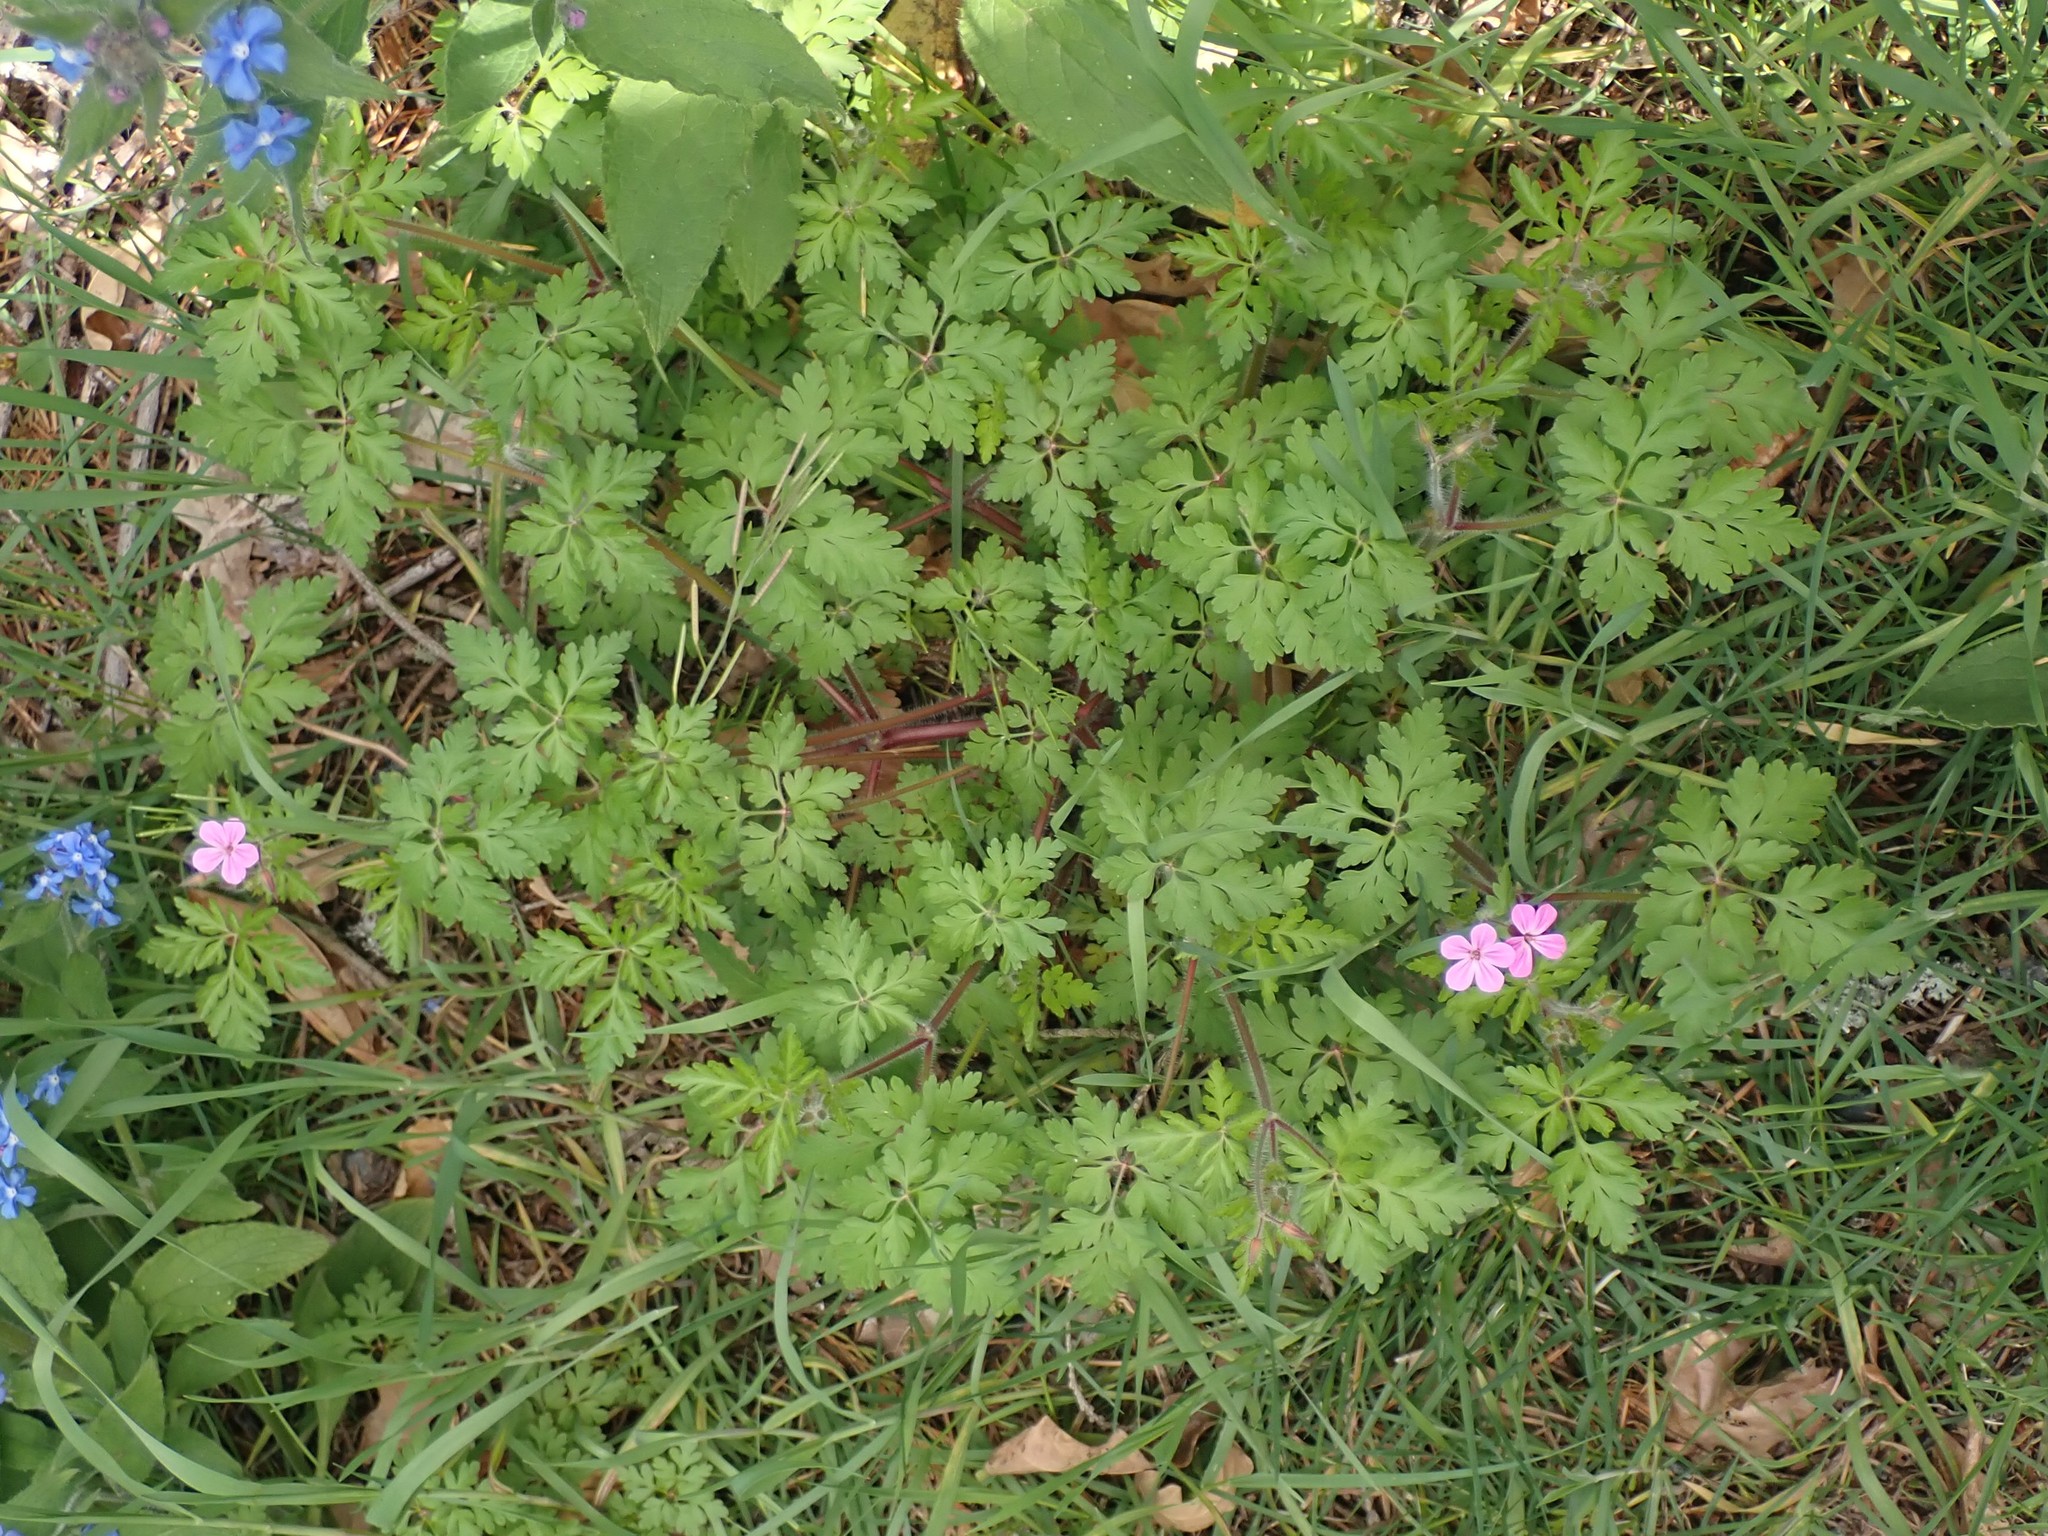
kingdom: Plantae
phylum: Tracheophyta
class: Magnoliopsida
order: Geraniales
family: Geraniaceae
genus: Geranium
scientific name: Geranium robertianum
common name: Herb-robert
